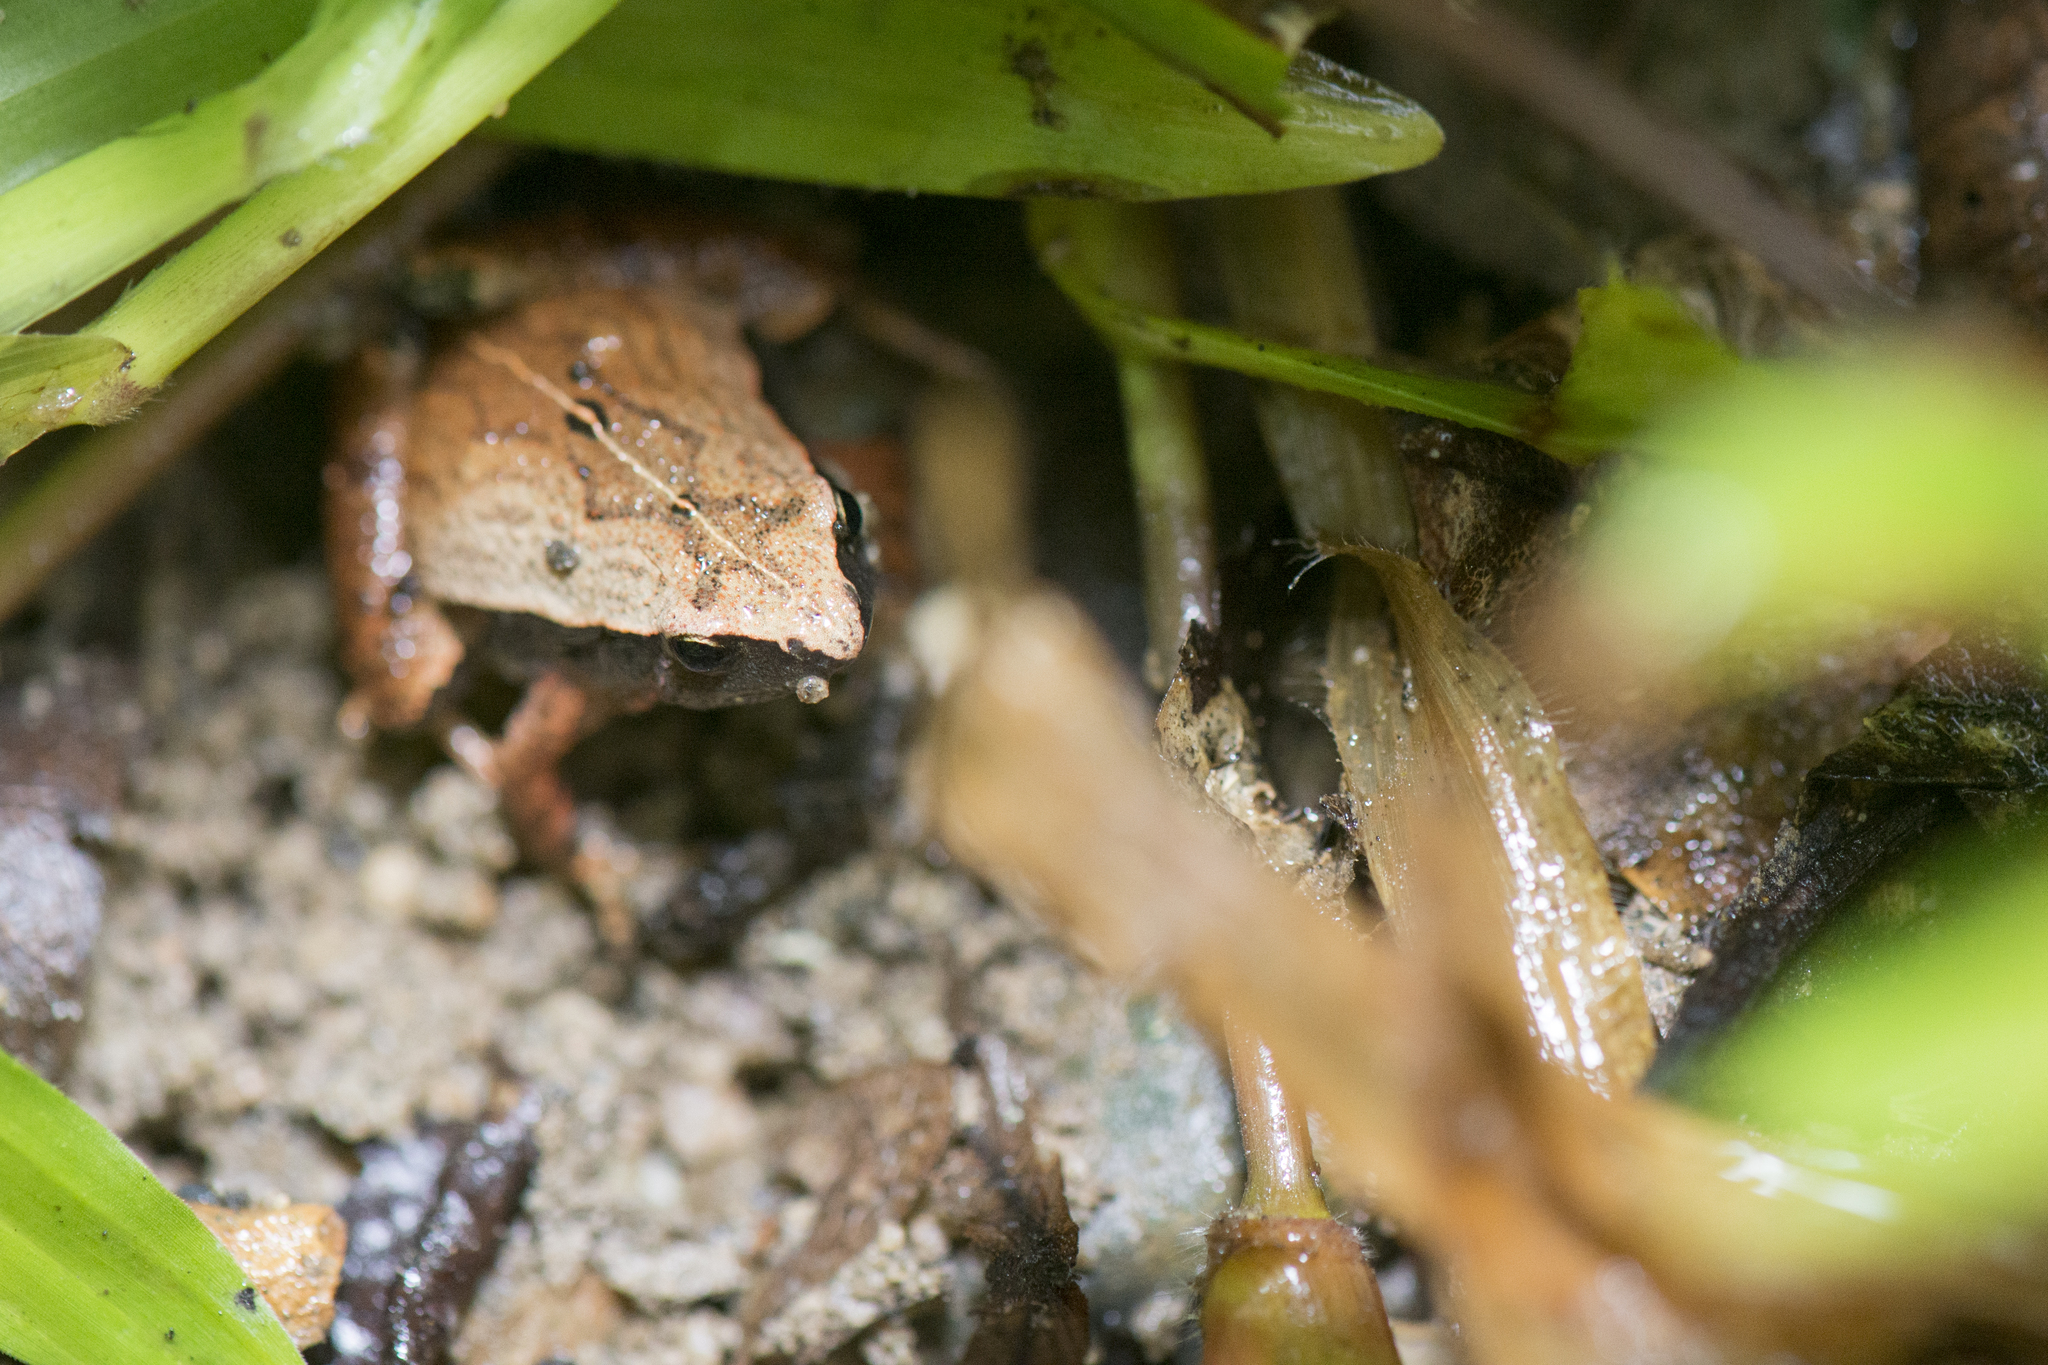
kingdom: Animalia
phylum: Chordata
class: Amphibia
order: Anura
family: Microhylidae
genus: Microhyla
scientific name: Microhyla heymonsi
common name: Taiwan rice frog,dark sided chorus frog
